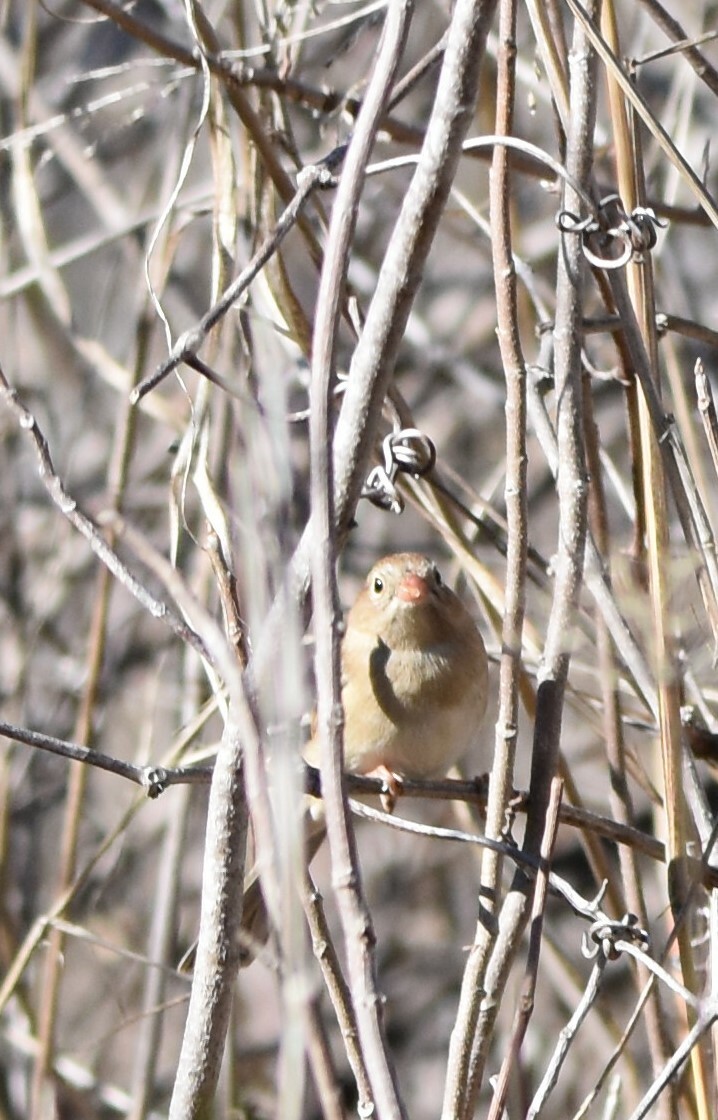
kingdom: Animalia
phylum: Chordata
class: Aves
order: Passeriformes
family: Passerellidae
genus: Spizella
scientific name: Spizella pusilla
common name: Field sparrow
